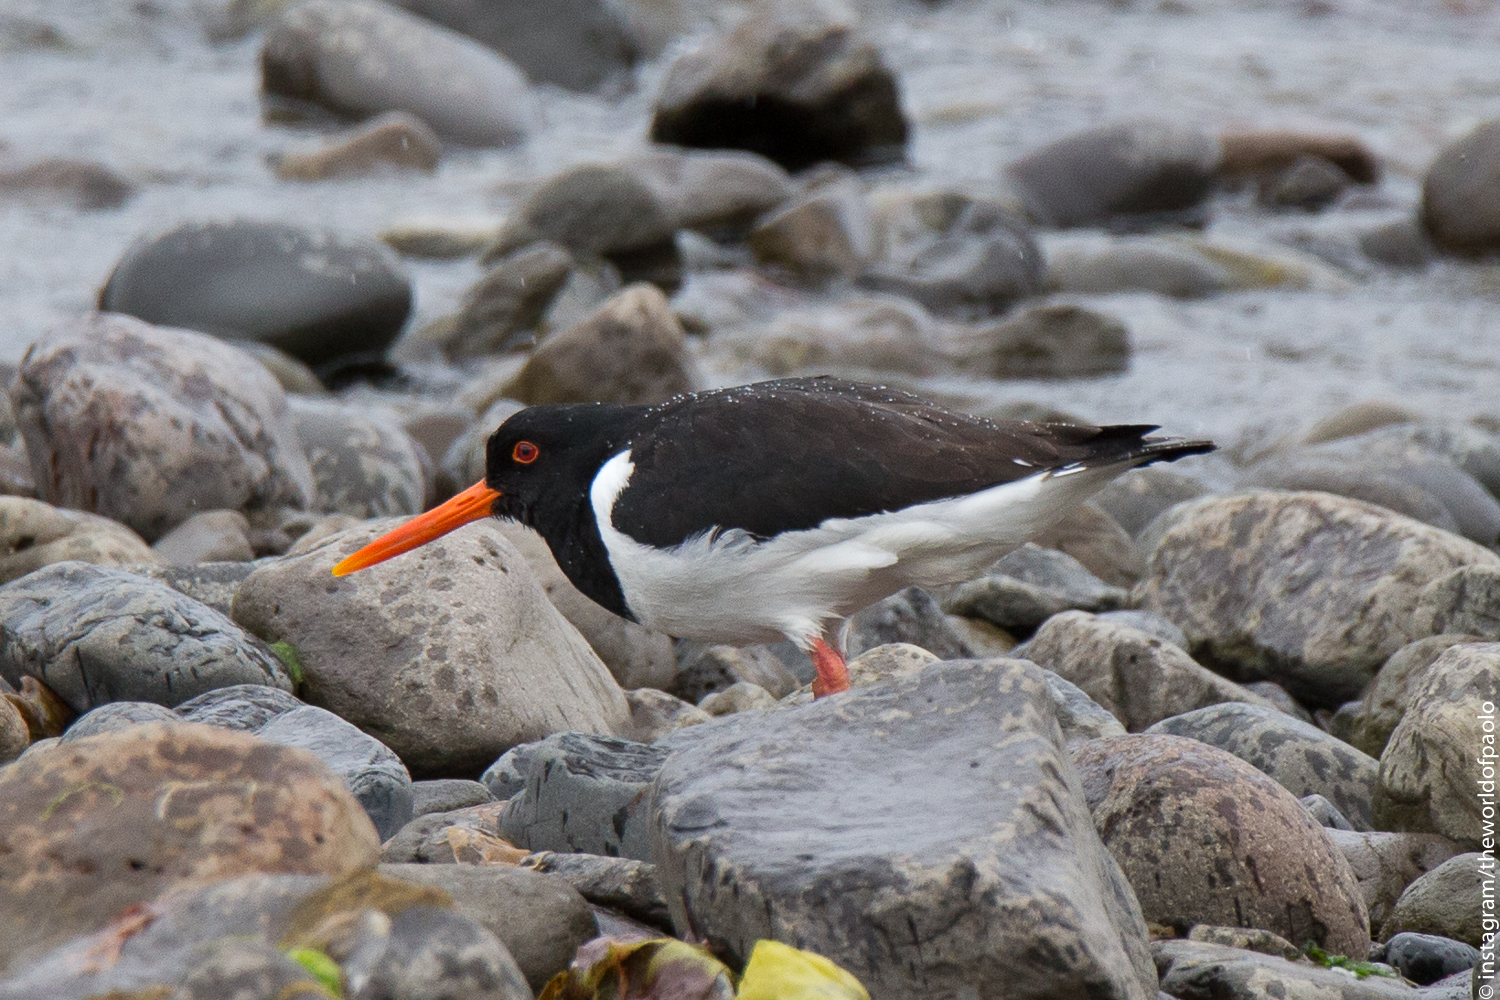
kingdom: Animalia
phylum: Chordata
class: Aves
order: Charadriiformes
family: Haematopodidae
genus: Haematopus
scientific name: Haematopus ostralegus
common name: Eurasian oystercatcher
